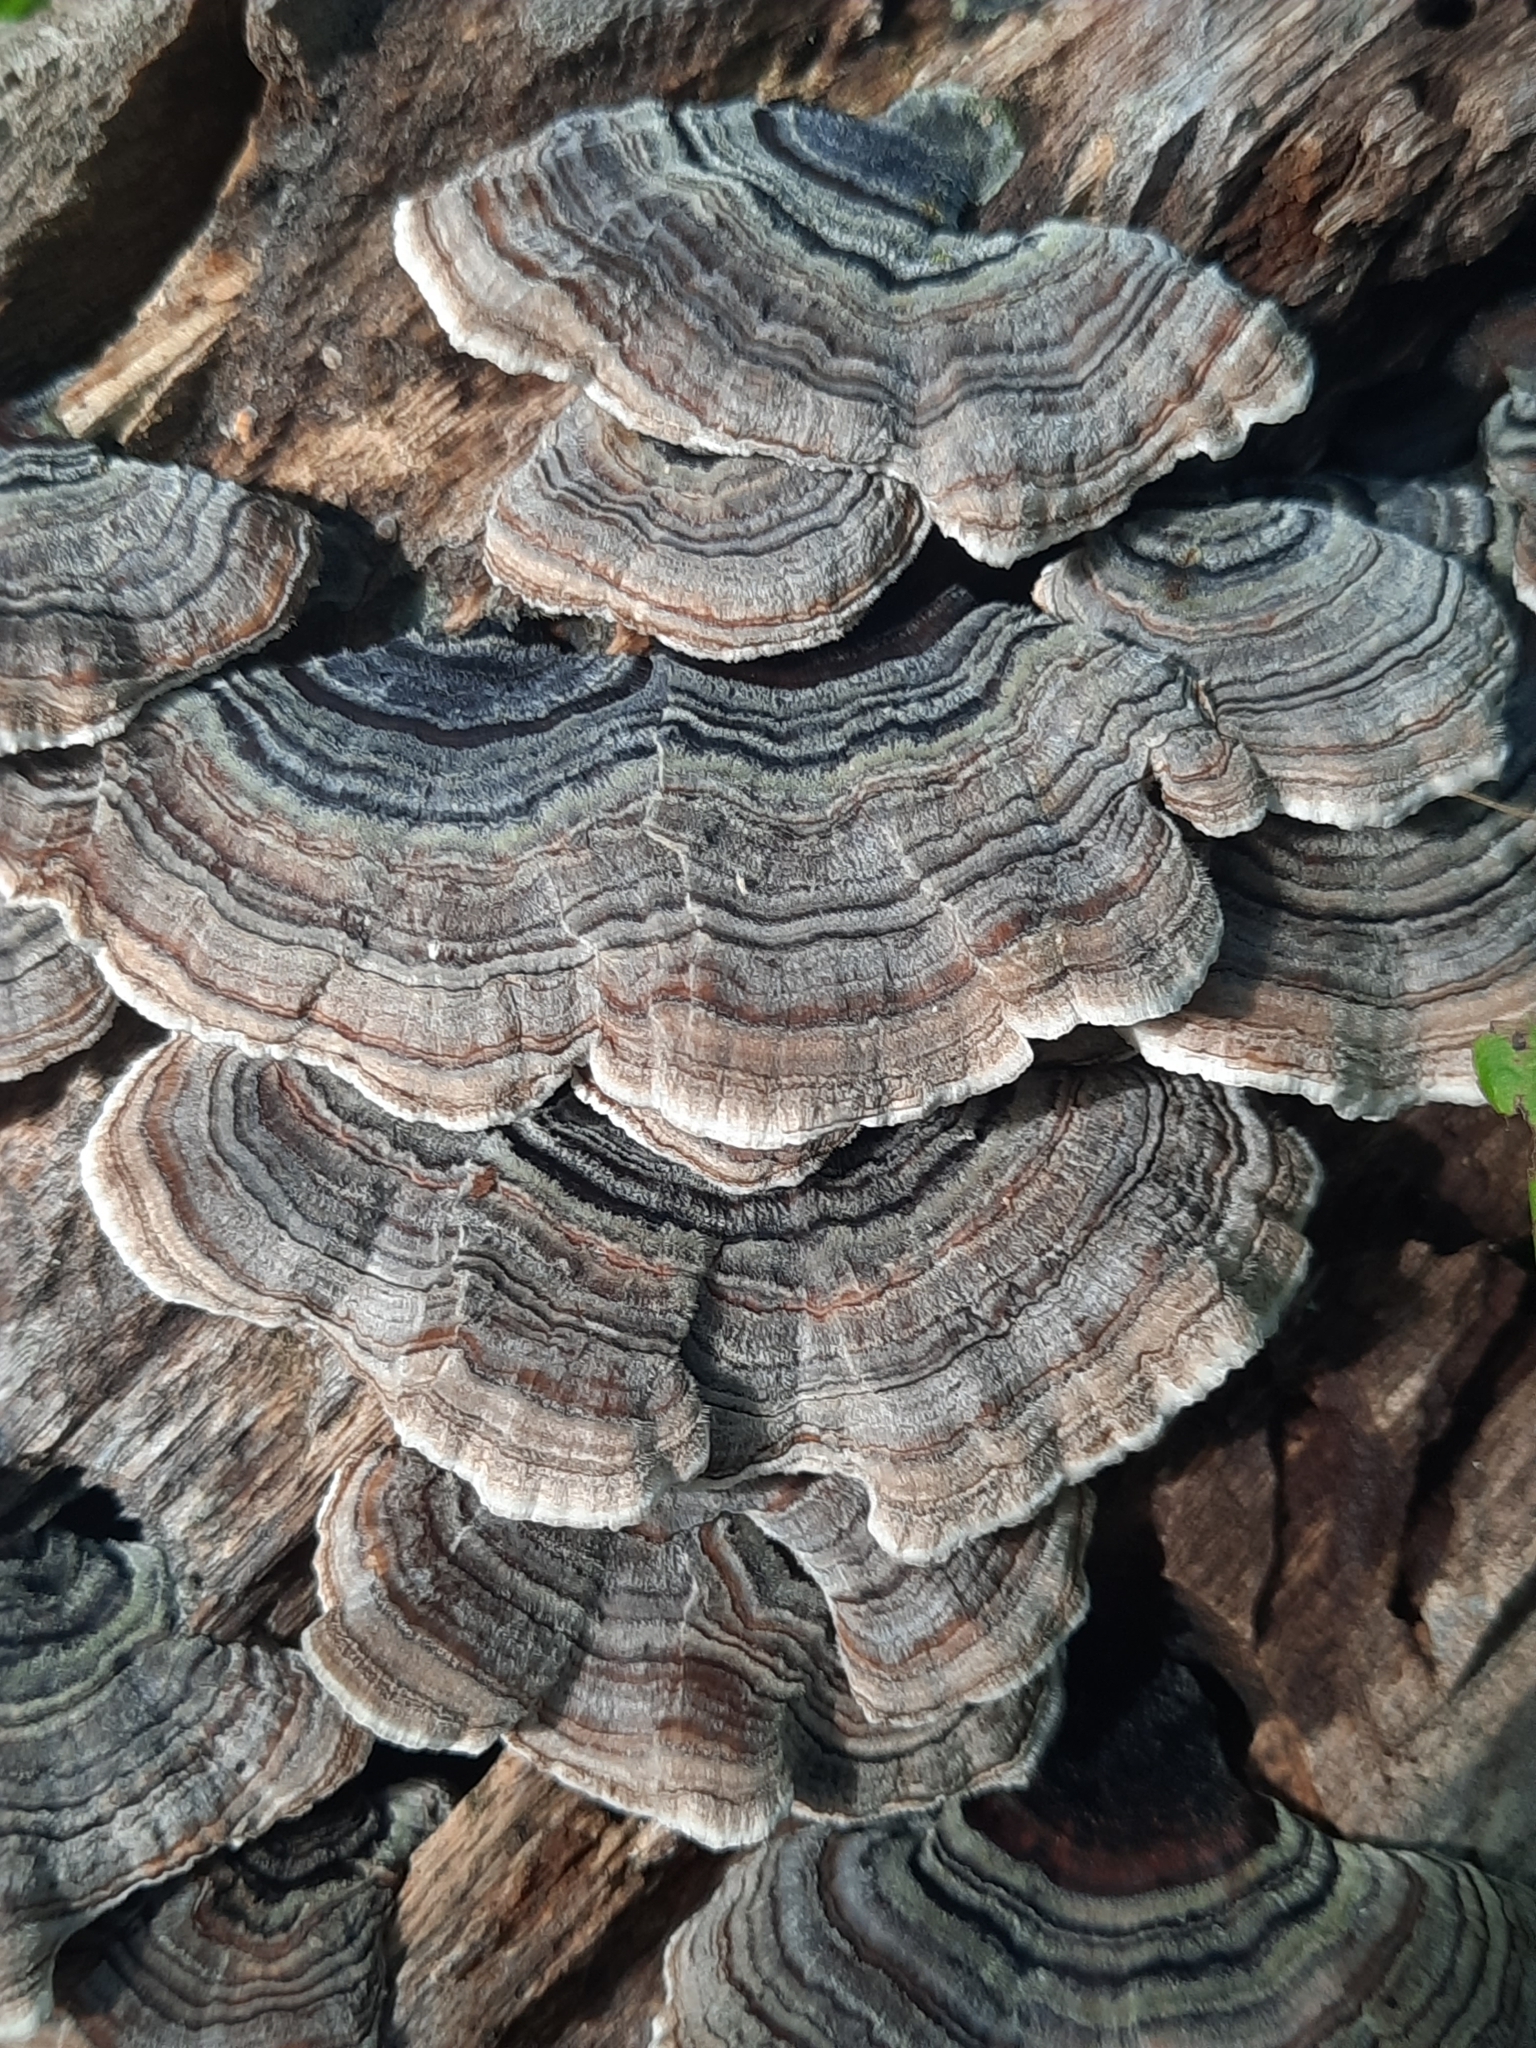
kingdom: Fungi
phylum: Basidiomycota
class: Agaricomycetes
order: Polyporales
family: Polyporaceae
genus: Trametes
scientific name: Trametes versicolor
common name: Turkeytail
